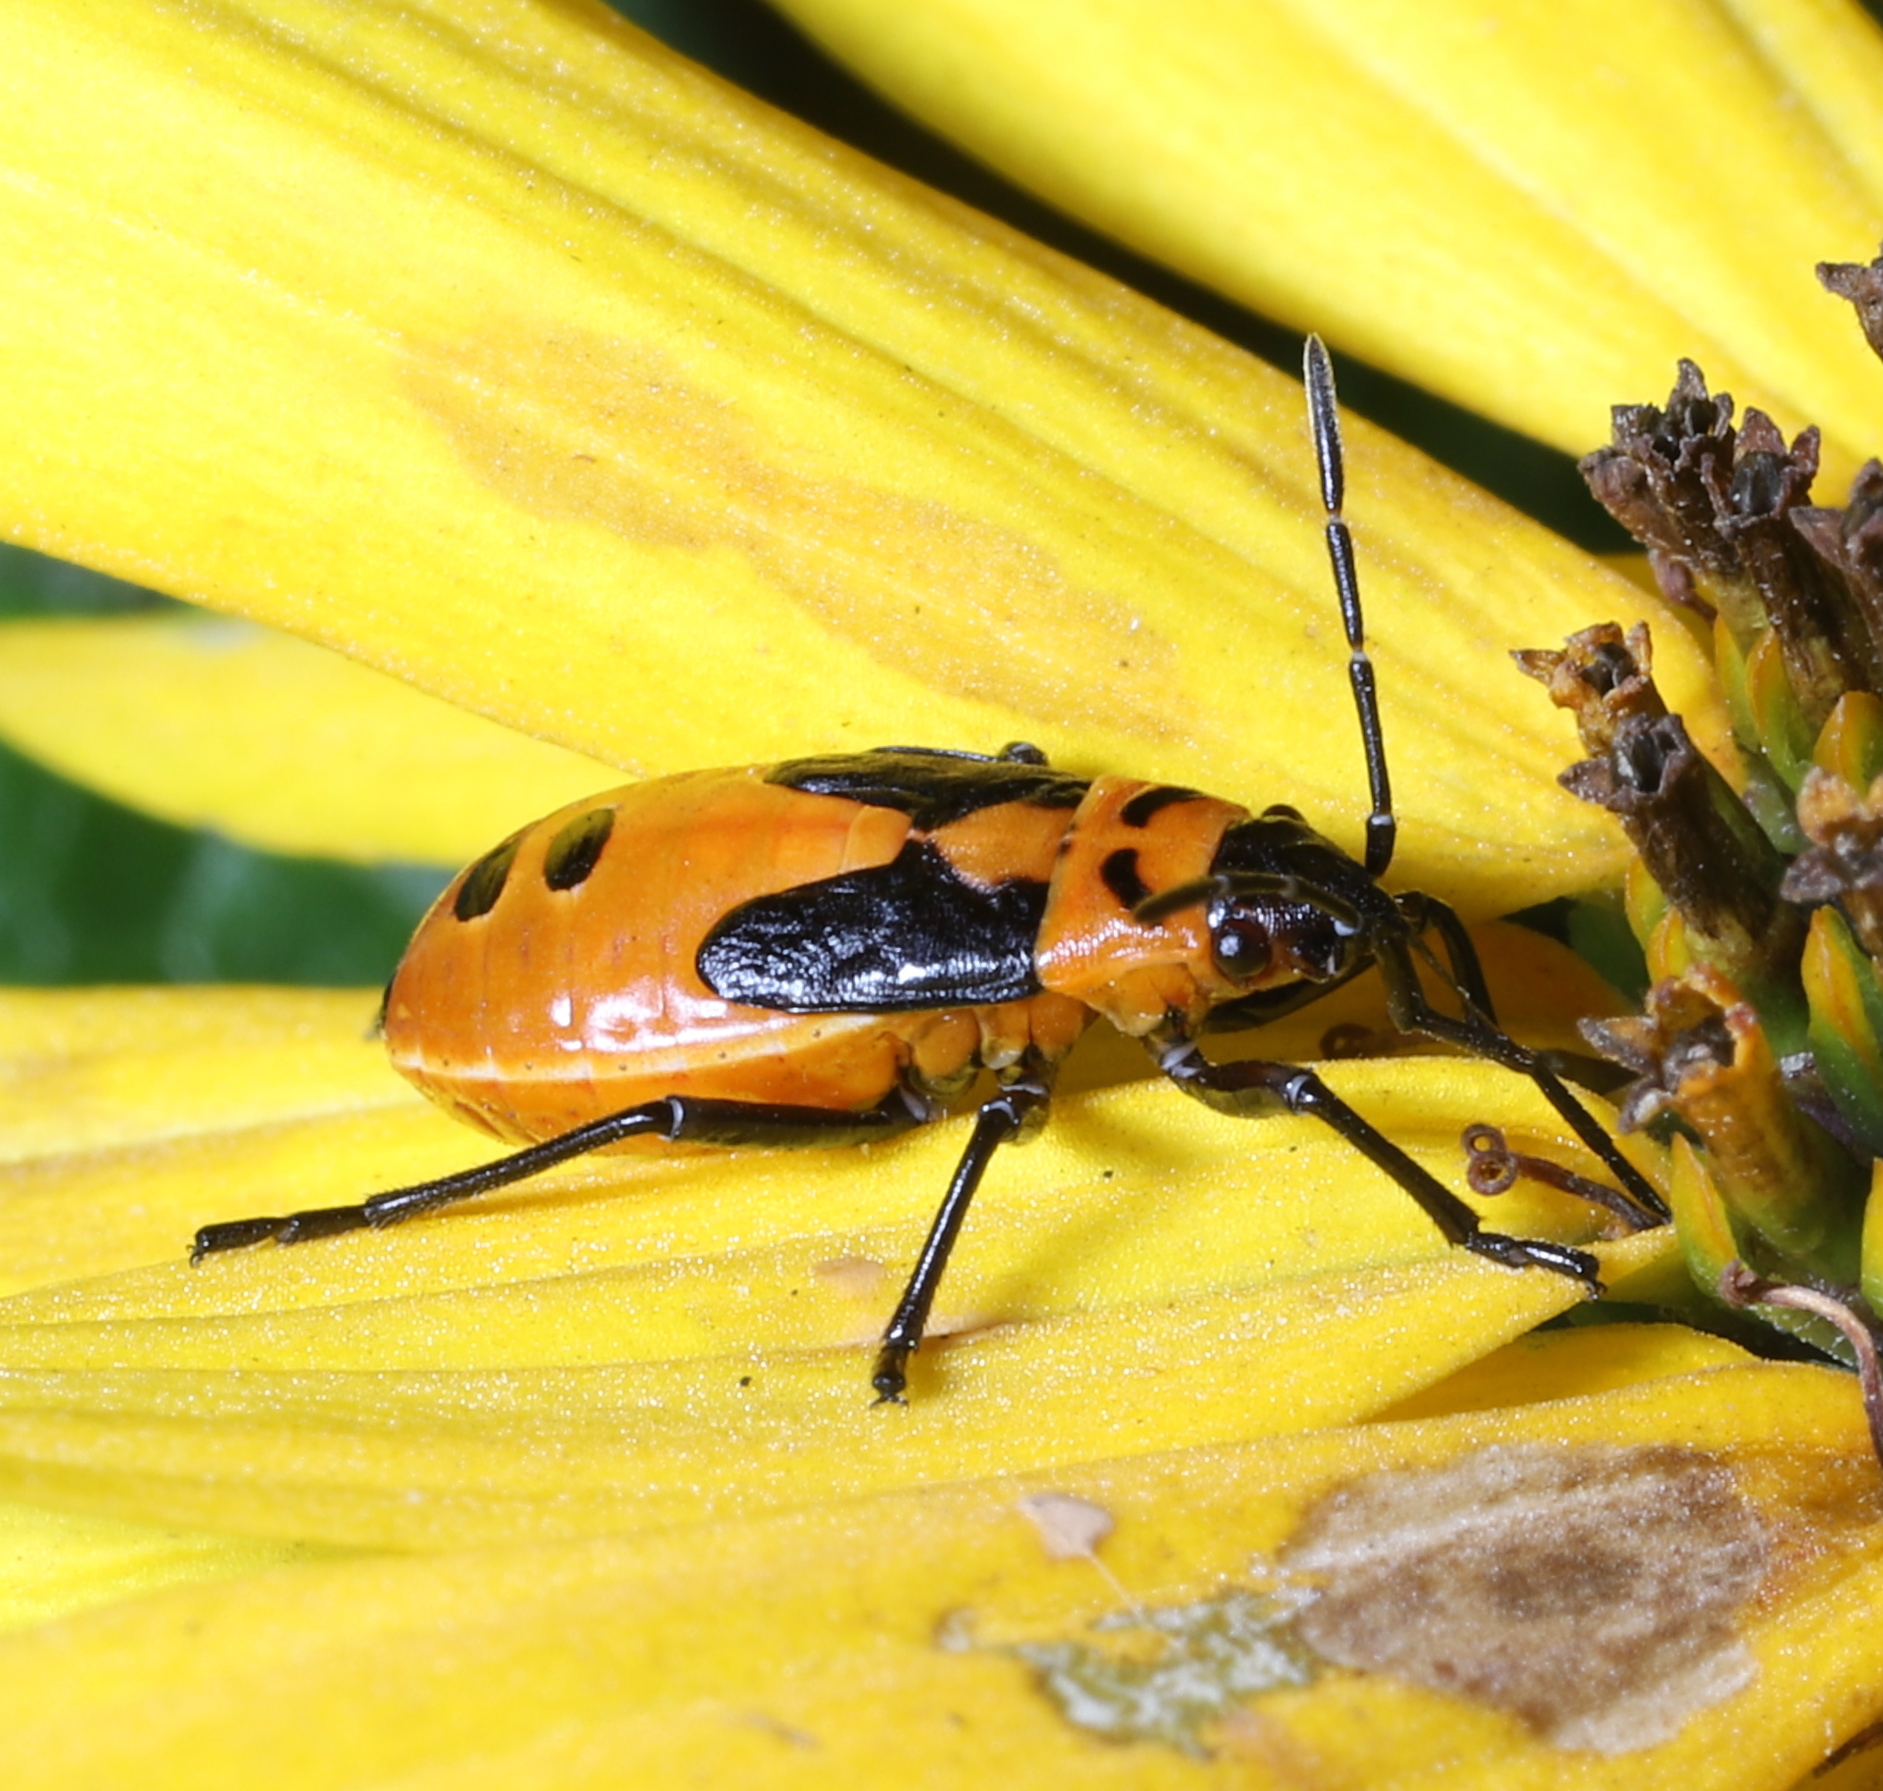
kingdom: Animalia
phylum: Arthropoda
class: Insecta
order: Hemiptera
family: Lygaeidae
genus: Lygaeus
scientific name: Lygaeus turcicus
